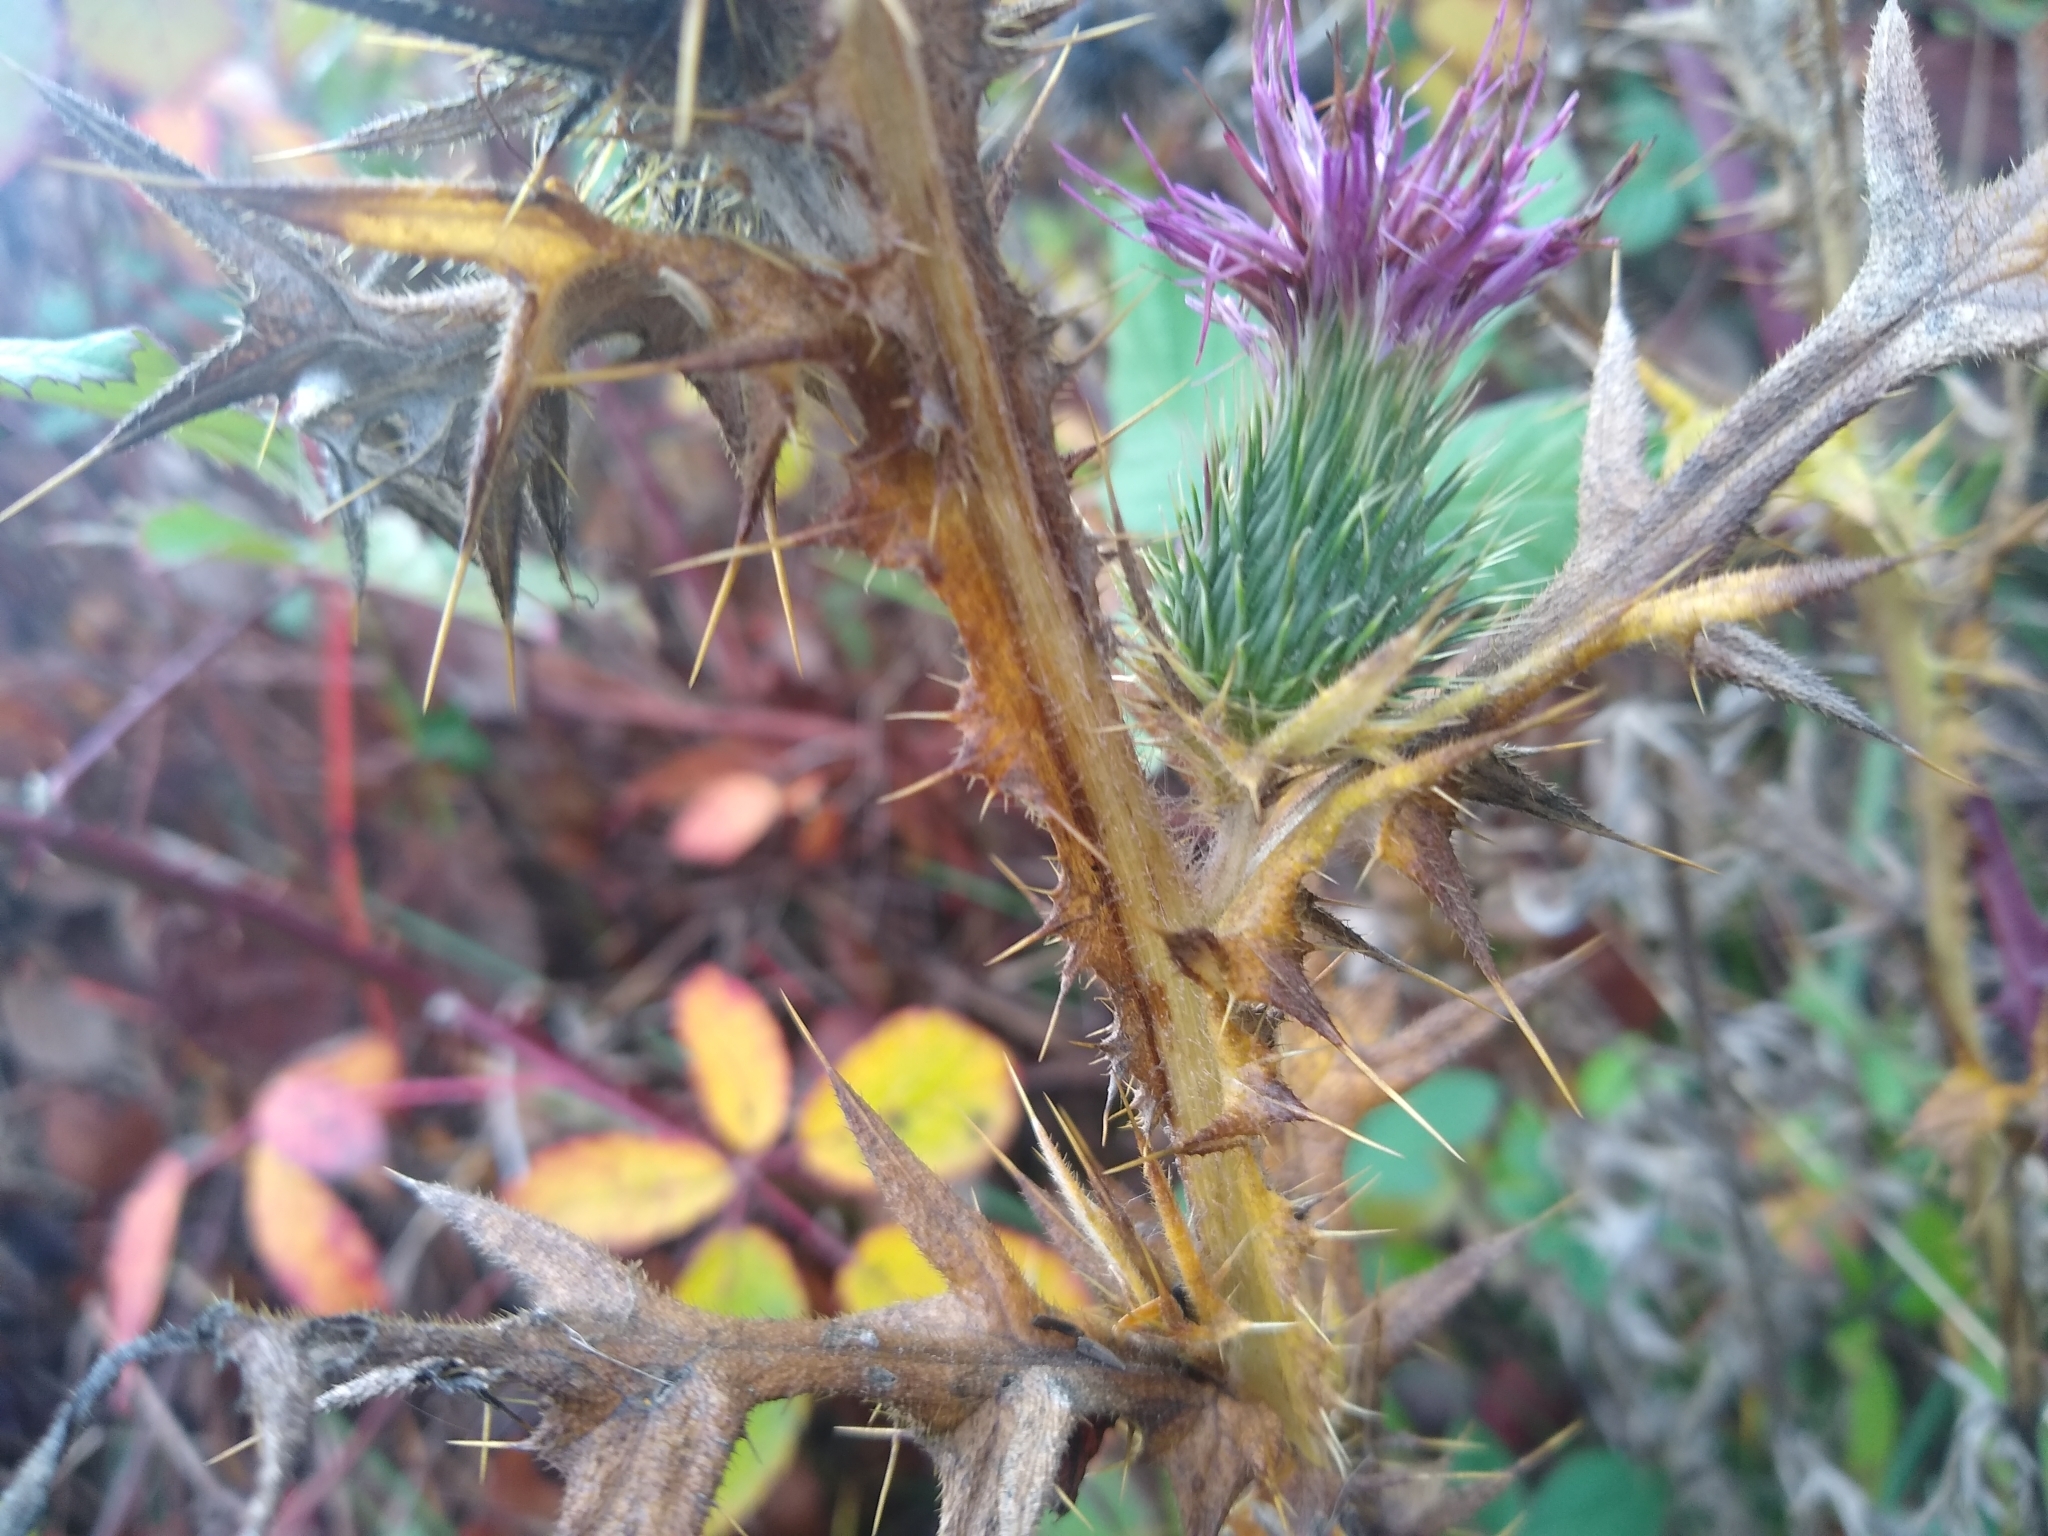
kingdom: Plantae
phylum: Tracheophyta
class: Magnoliopsida
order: Asterales
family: Asteraceae
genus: Cirsium
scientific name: Cirsium vulgare
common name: Bull thistle
